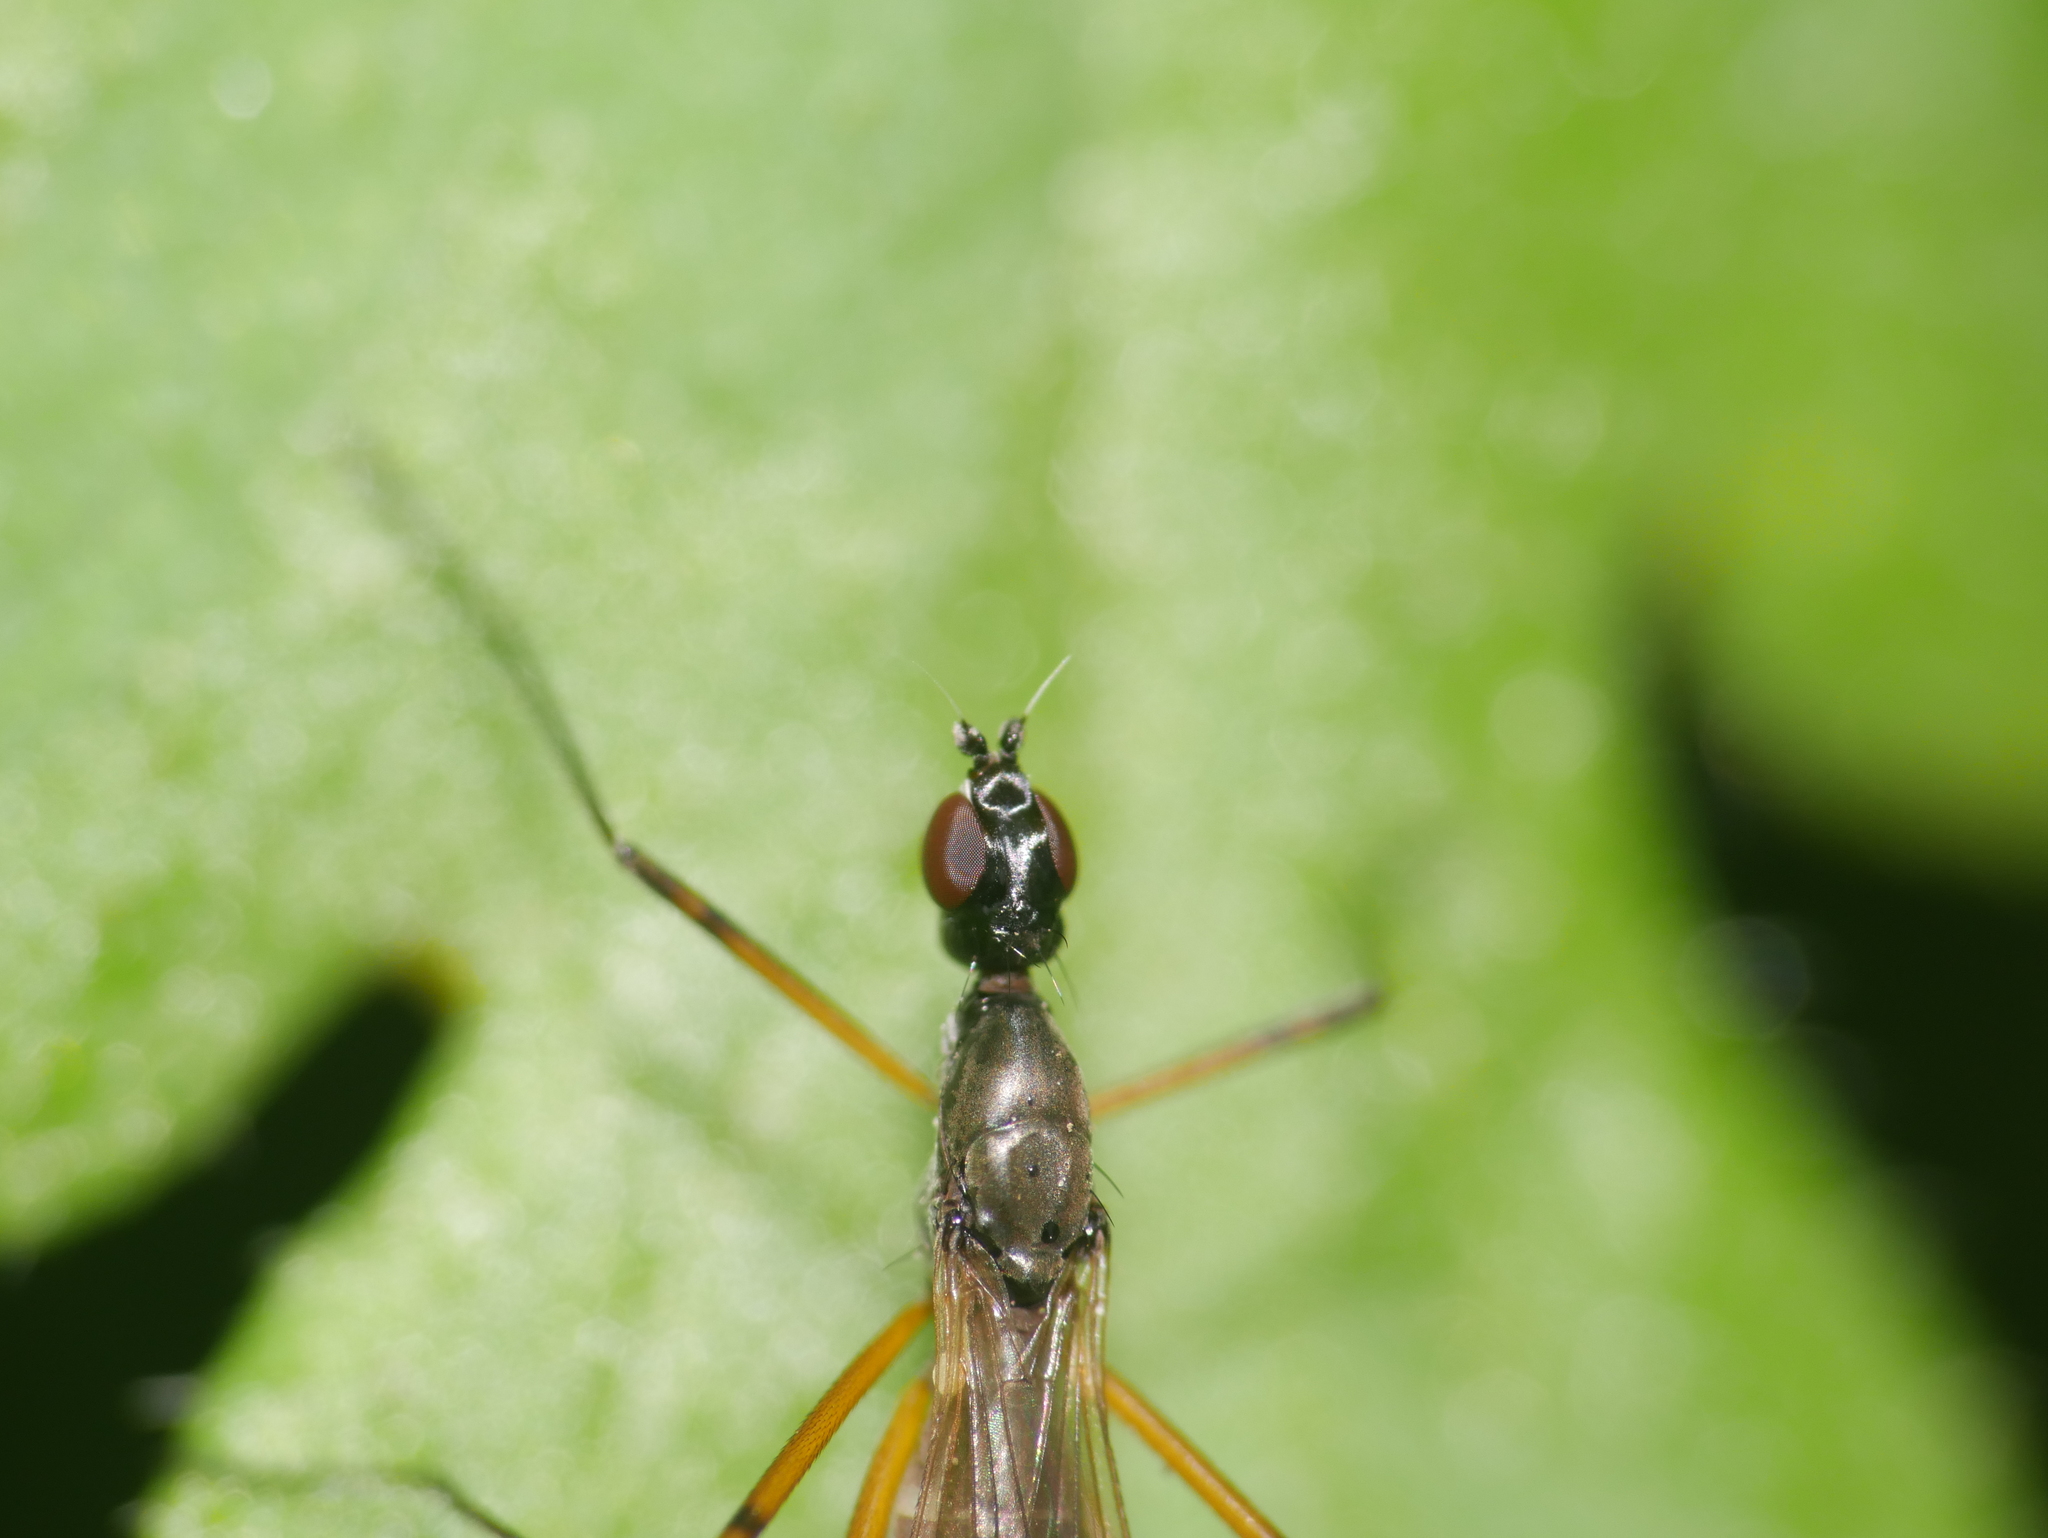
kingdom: Animalia
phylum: Arthropoda
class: Insecta
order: Diptera
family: Micropezidae
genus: Micropeza
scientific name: Micropeza corrigiolata
